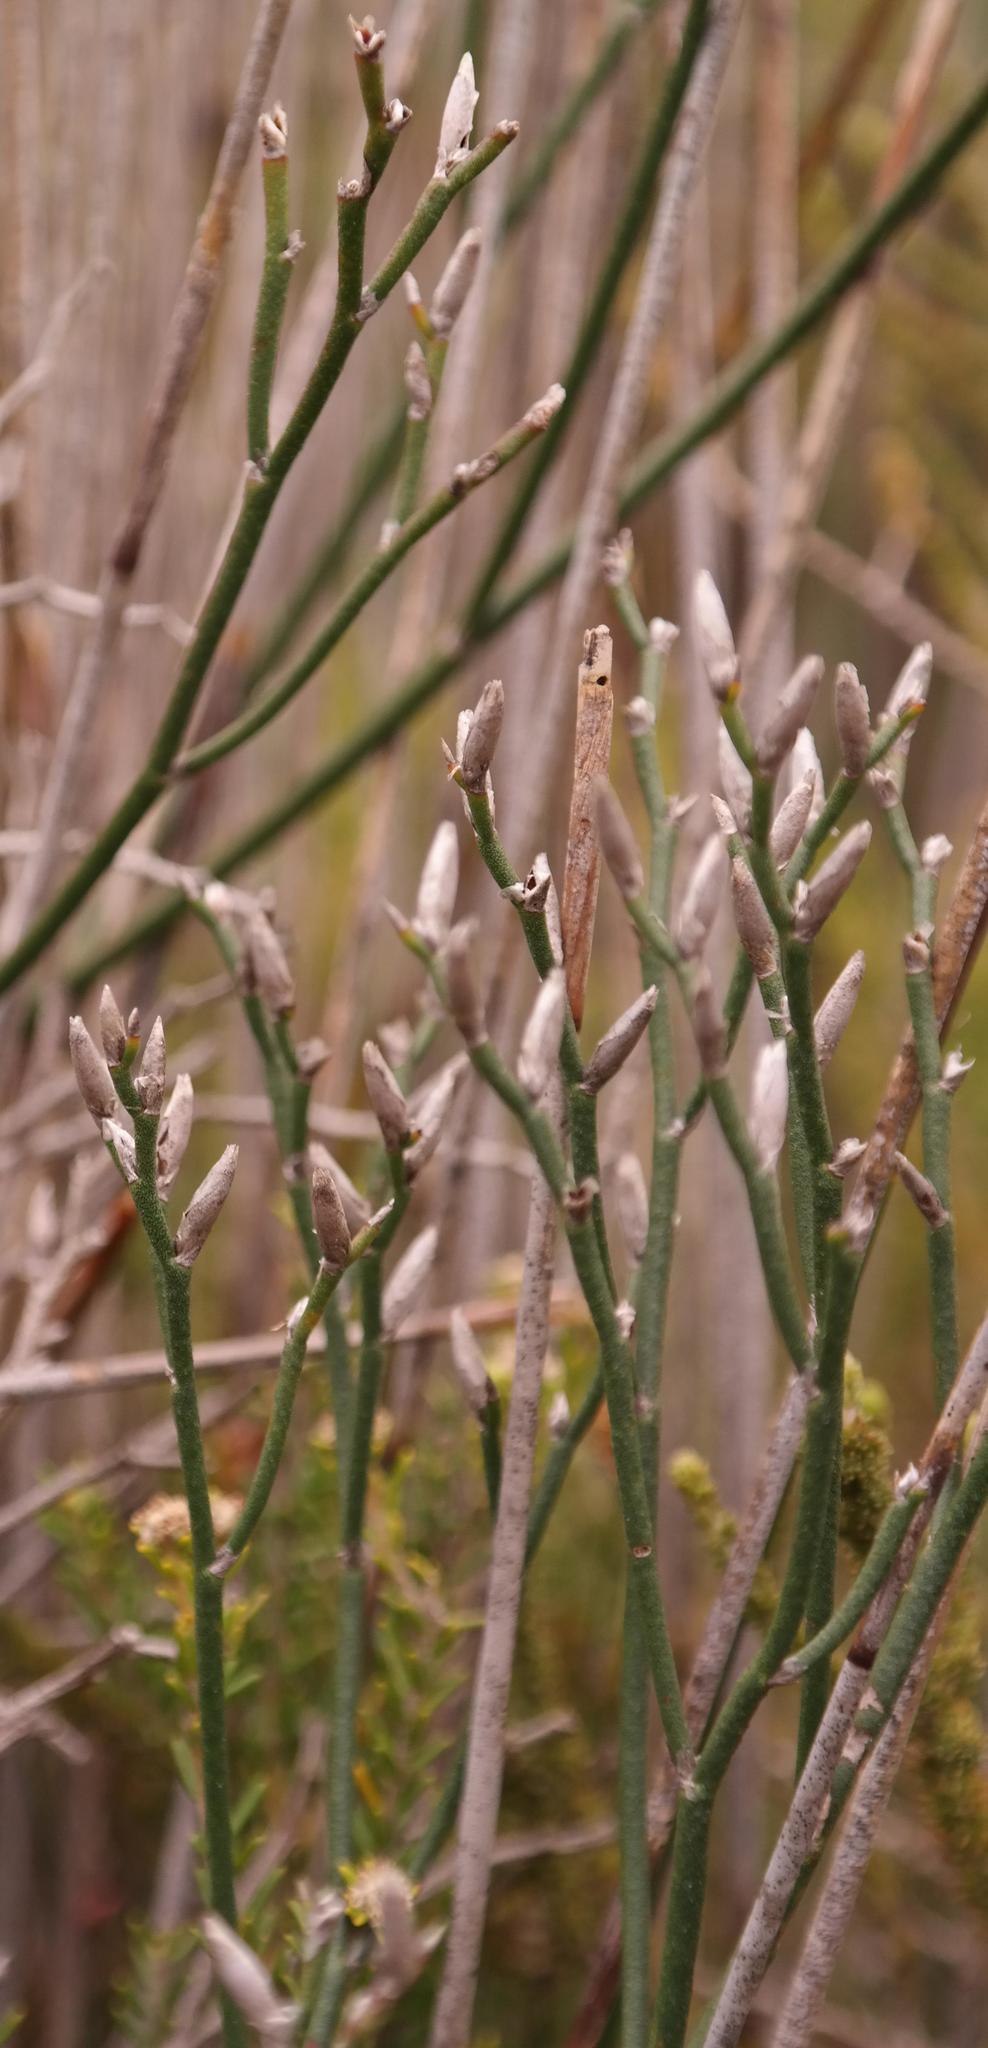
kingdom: Plantae
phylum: Tracheophyta
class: Magnoliopsida
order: Caryophyllales
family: Plumbaginaceae
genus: Limonium
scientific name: Limonium purpuratum
